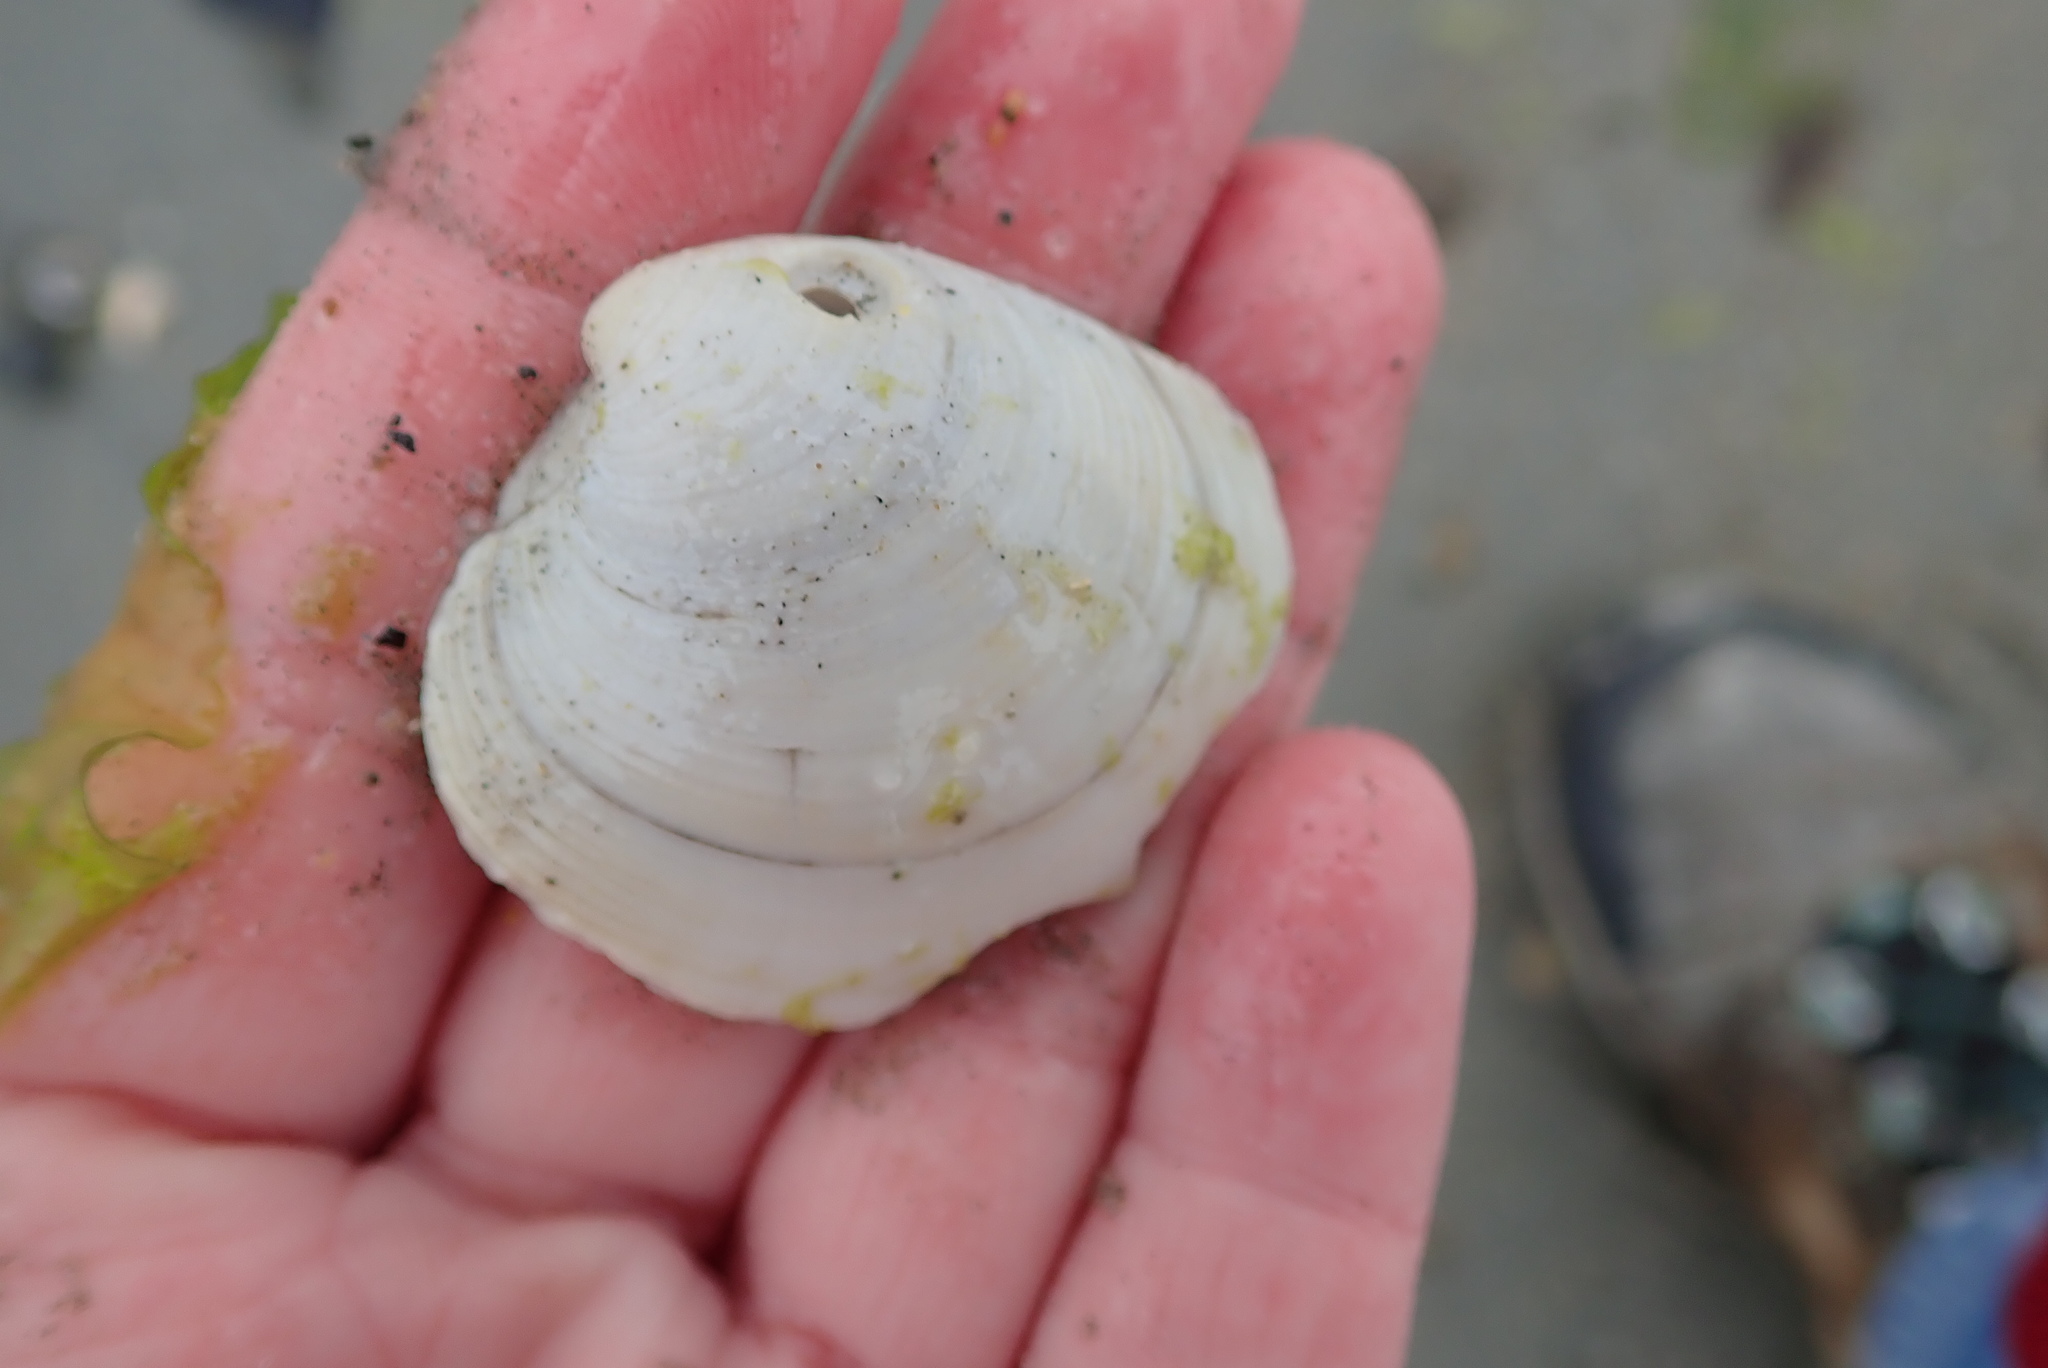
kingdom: Animalia
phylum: Mollusca
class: Bivalvia
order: Venerida
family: Veneridae
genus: Mercenaria
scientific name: Mercenaria mercenaria
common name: American hard-shelled clam
